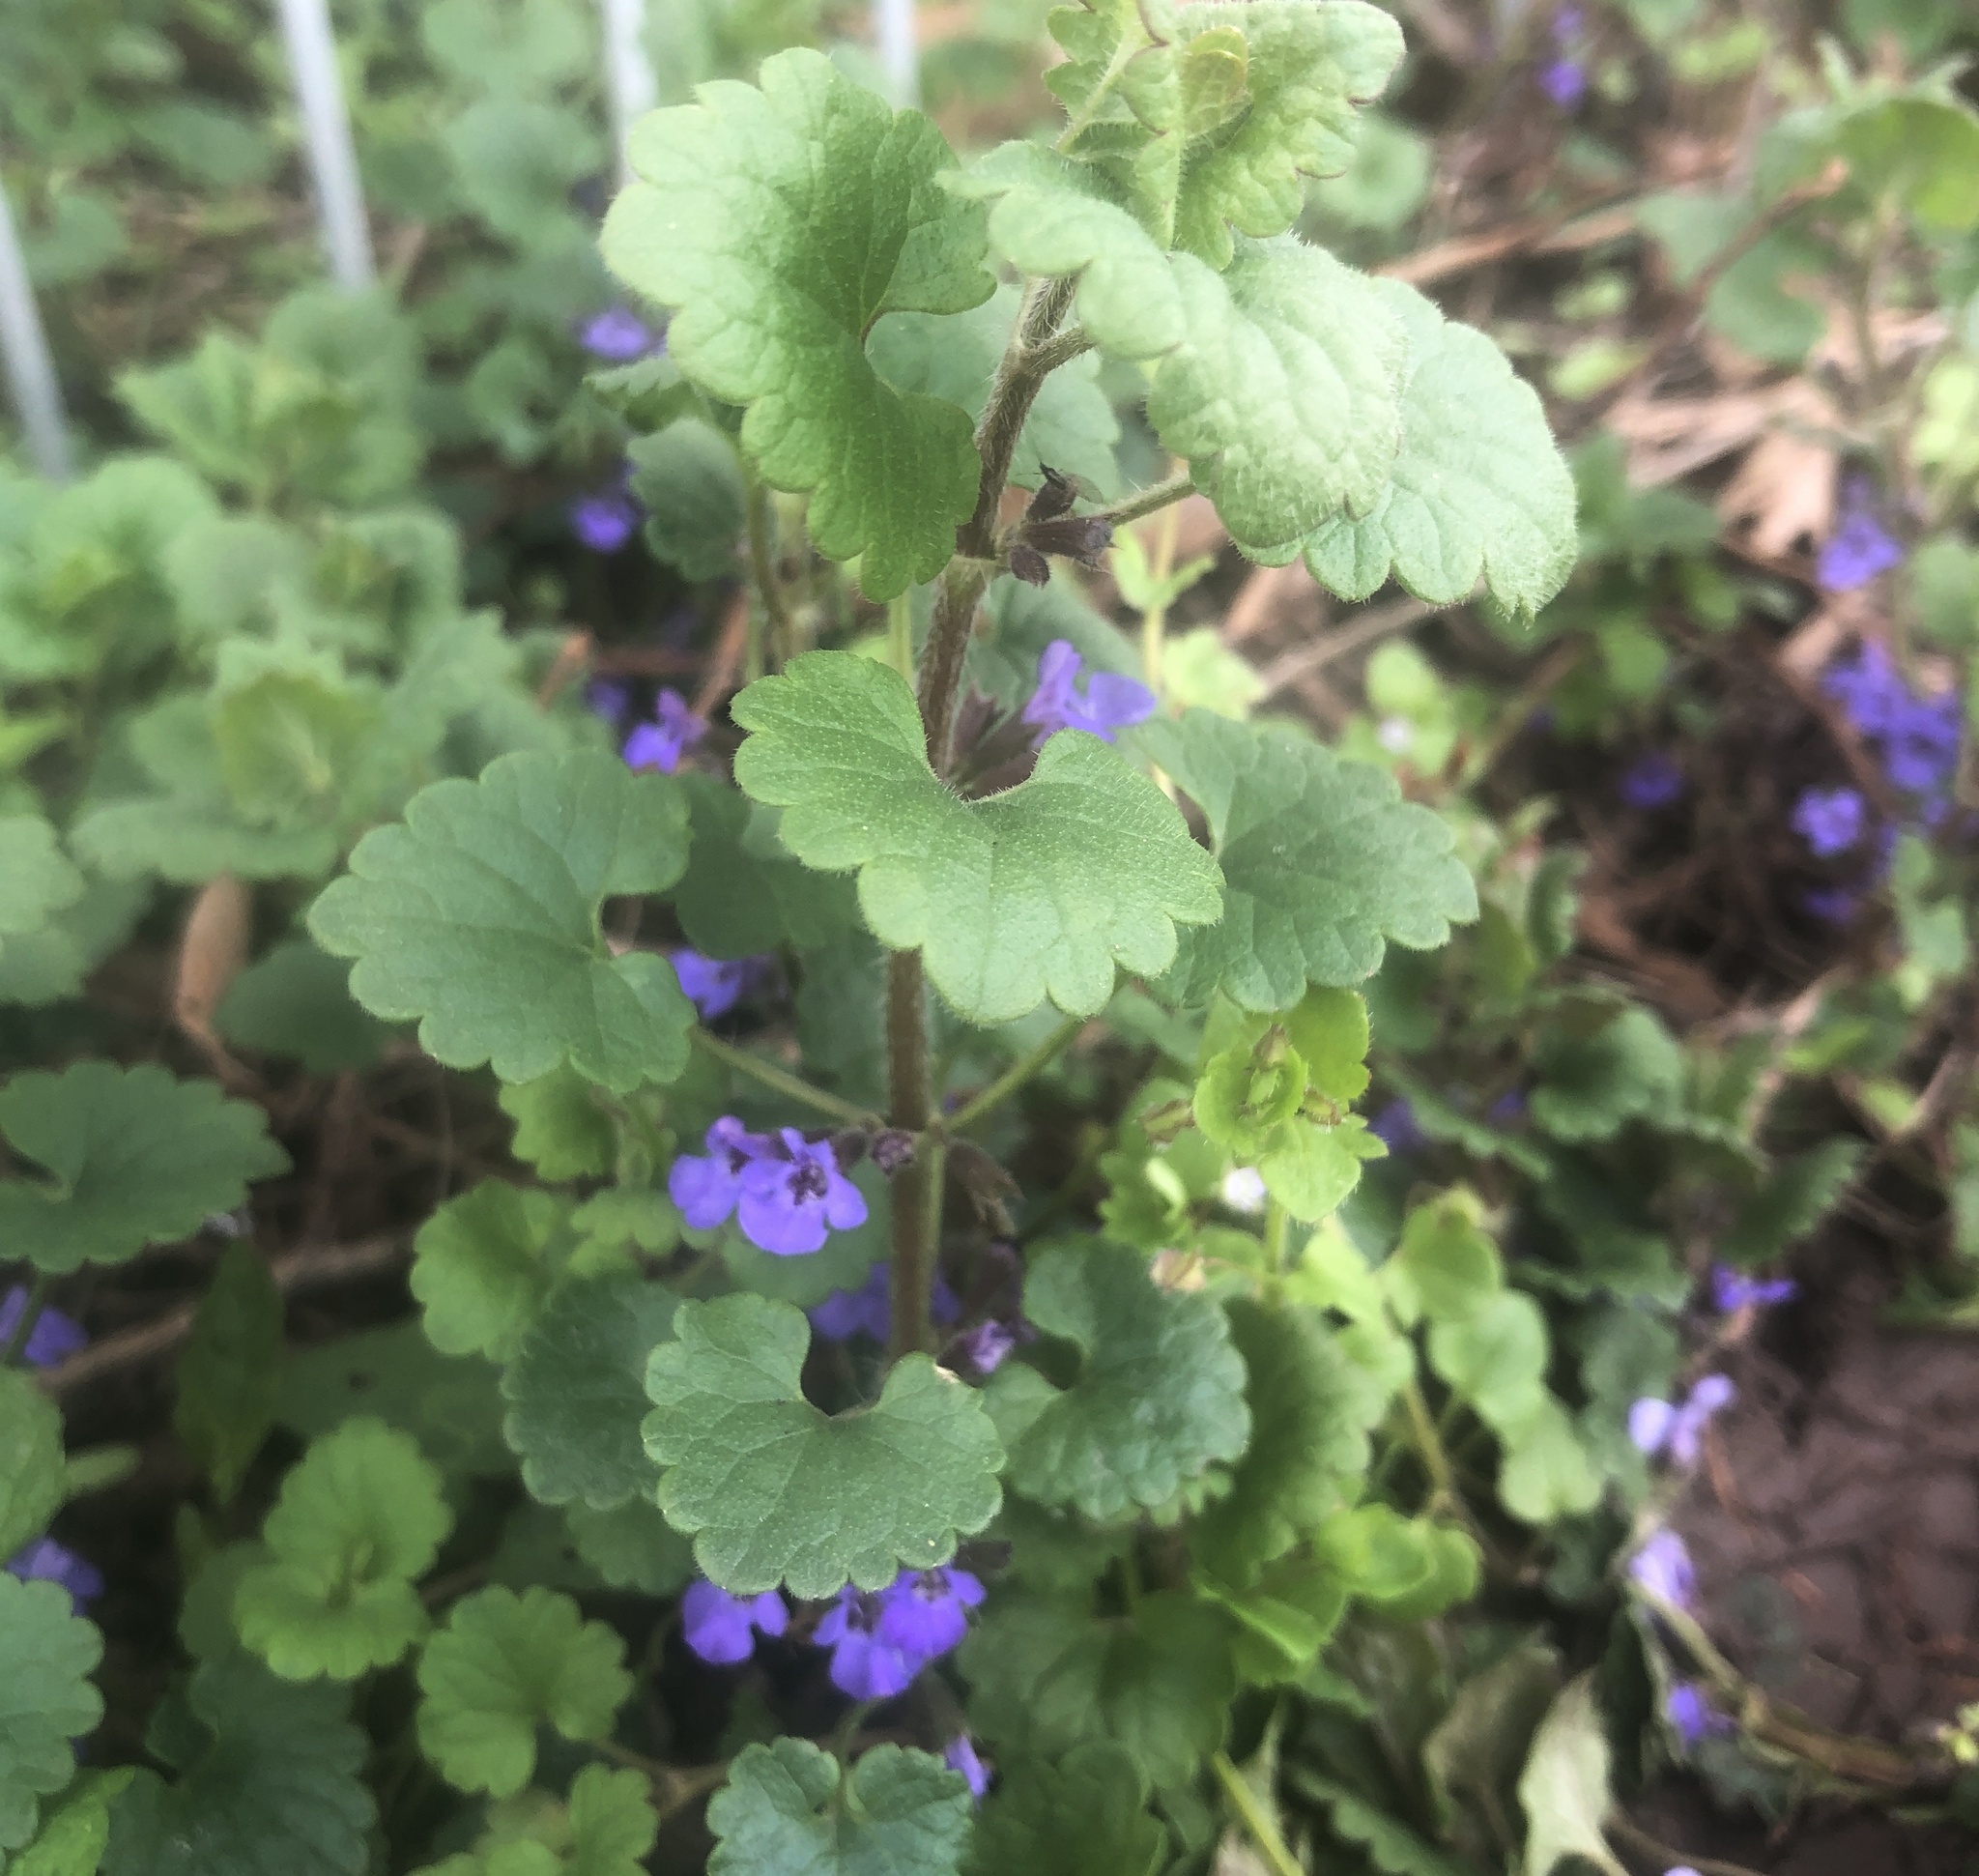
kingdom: Plantae
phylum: Tracheophyta
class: Magnoliopsida
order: Lamiales
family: Lamiaceae
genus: Glechoma
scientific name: Glechoma hederacea
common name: Ground ivy
